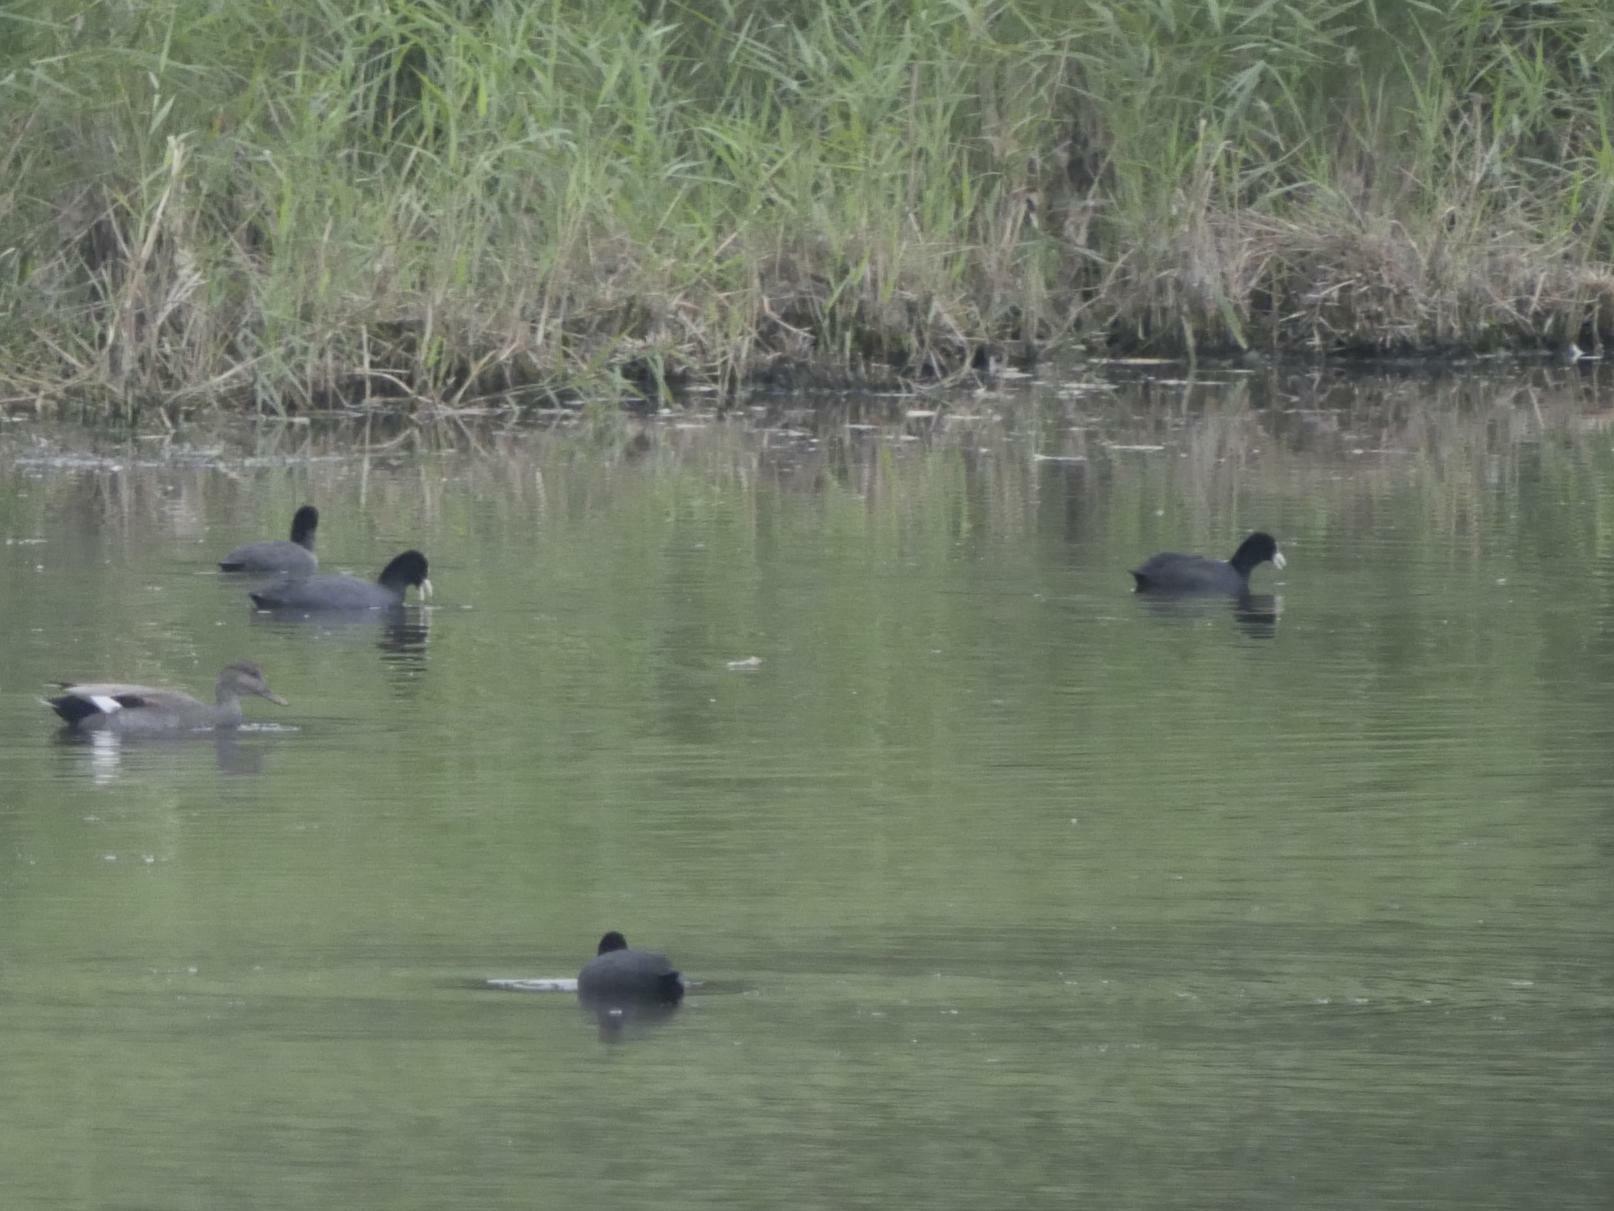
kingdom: Animalia
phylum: Chordata
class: Aves
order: Gruiformes
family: Rallidae
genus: Fulica
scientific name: Fulica atra
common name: Eurasian coot
